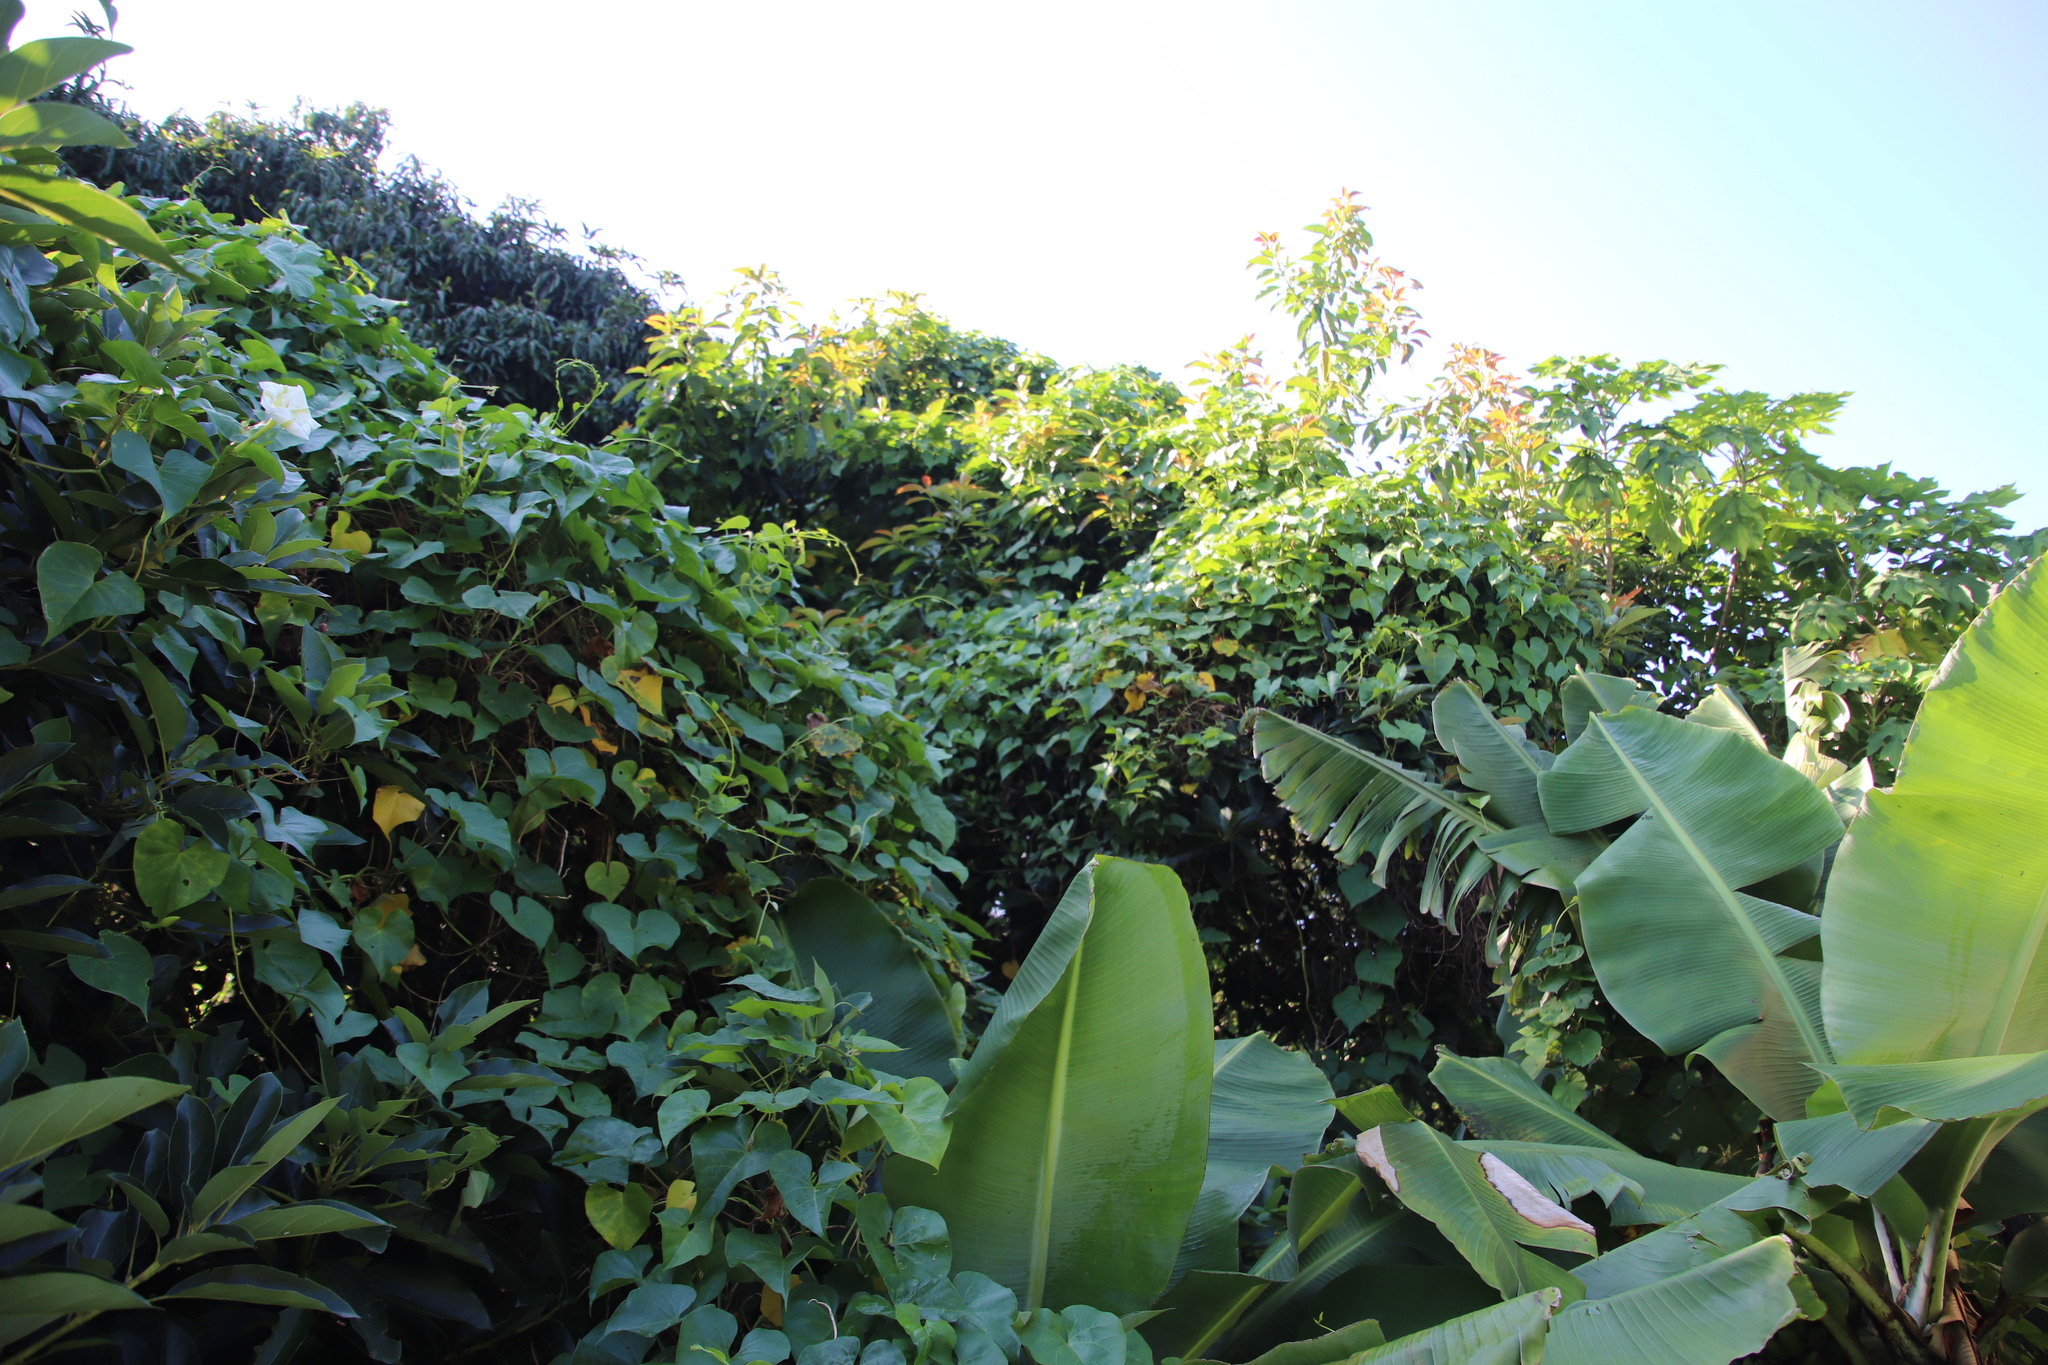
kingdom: Plantae
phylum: Tracheophyta
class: Magnoliopsida
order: Solanales
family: Convolvulaceae
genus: Ipomoea
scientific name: Ipomoea alba
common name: Moonflower
